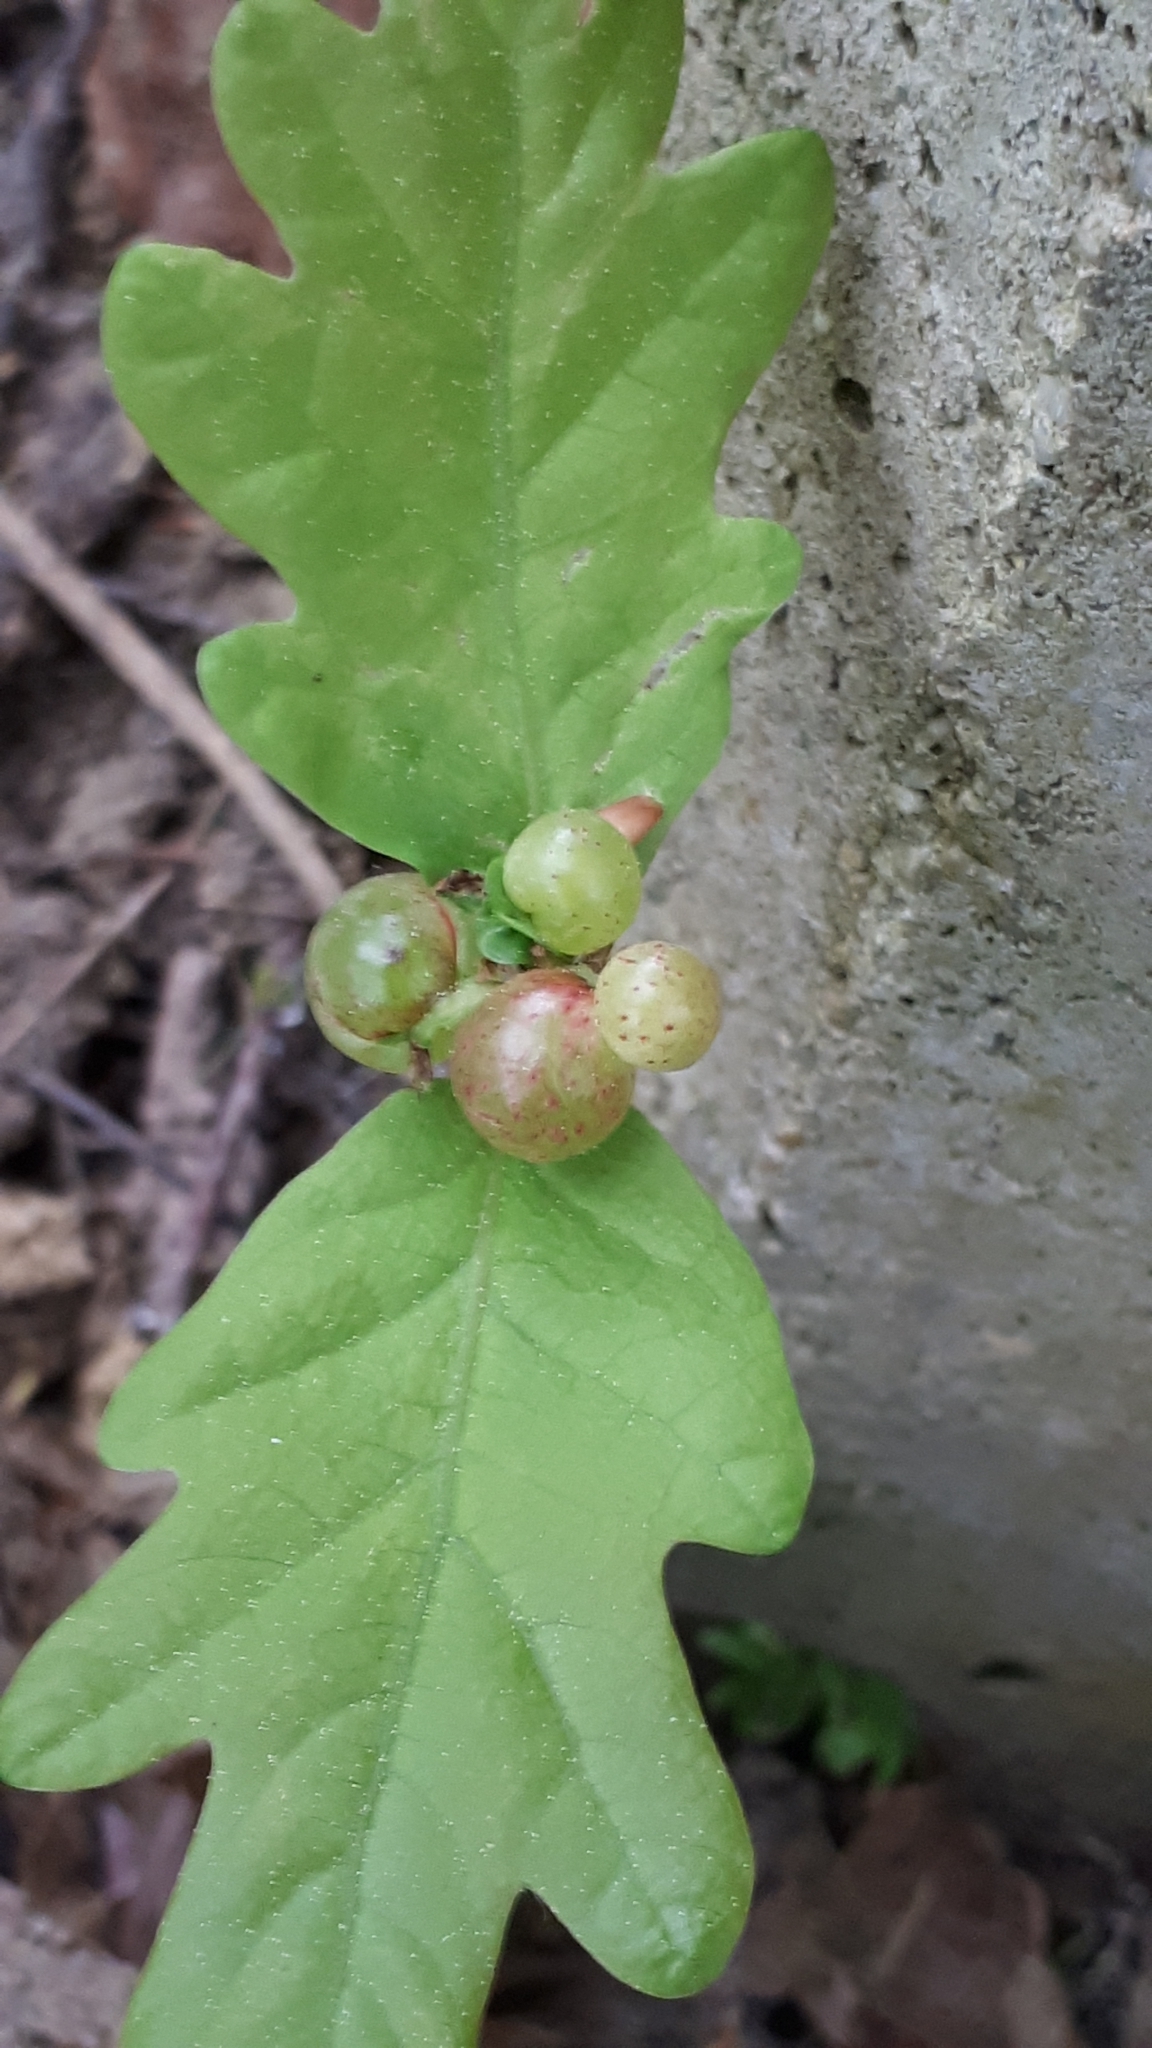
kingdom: Animalia
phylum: Arthropoda
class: Insecta
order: Hymenoptera
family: Cynipidae
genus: Neuroterus
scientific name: Neuroterus quercusbaccarum
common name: Common spangle gall
